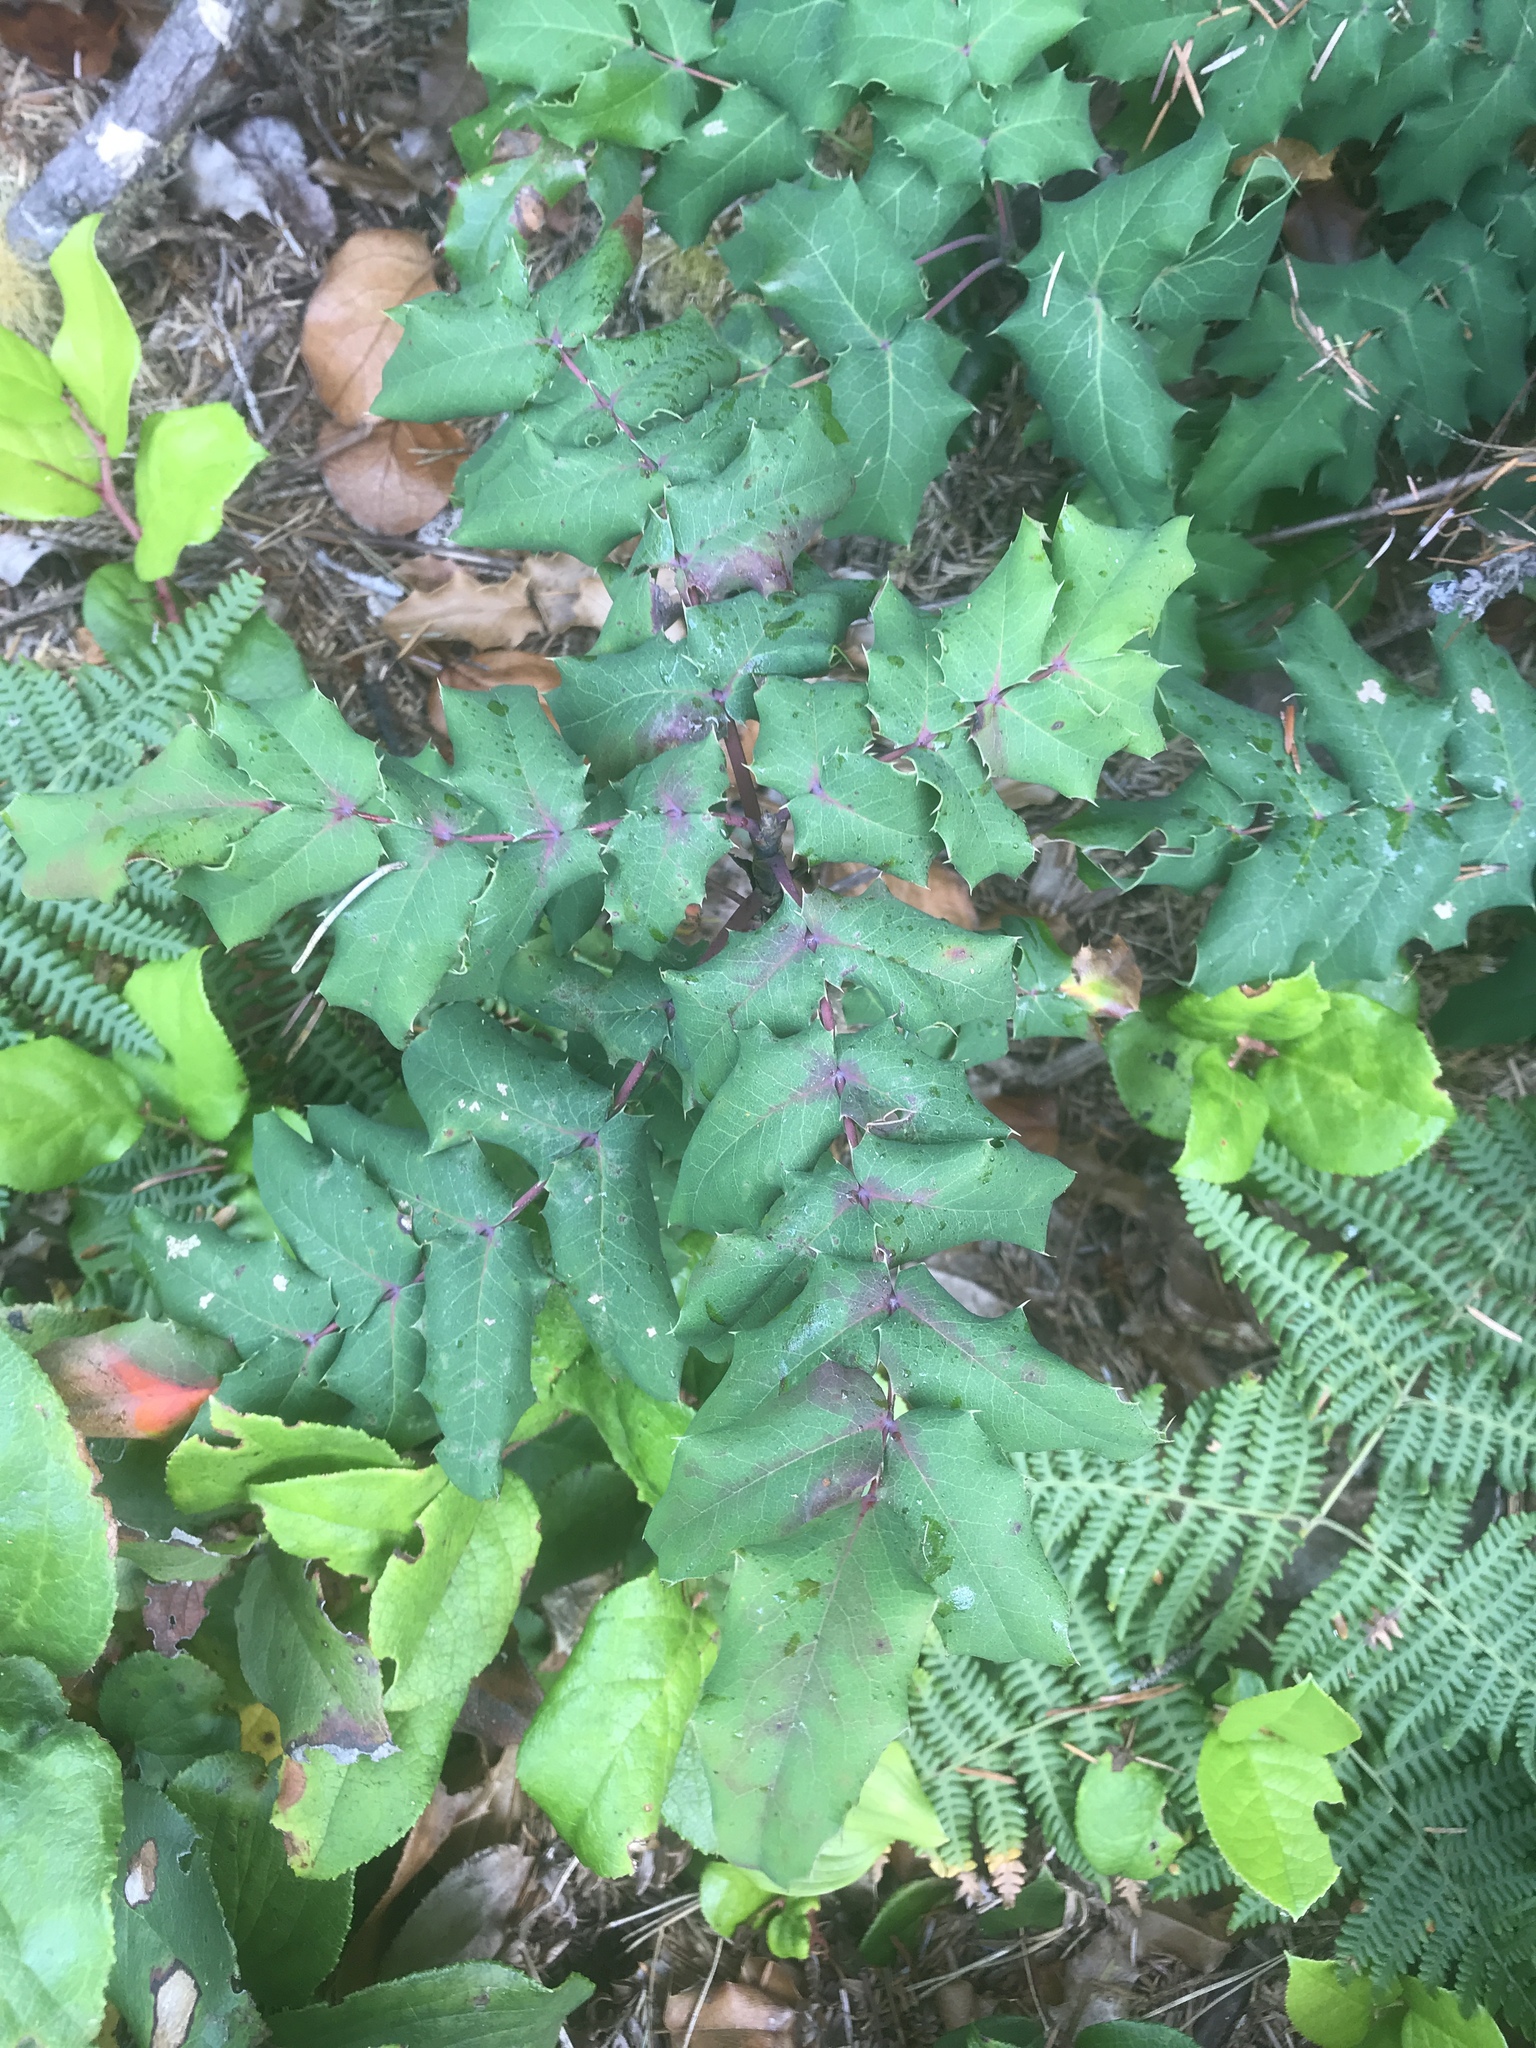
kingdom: Plantae
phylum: Tracheophyta
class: Magnoliopsida
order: Ranunculales
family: Berberidaceae
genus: Mahonia
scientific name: Mahonia aquifolium
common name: Oregon-grape
